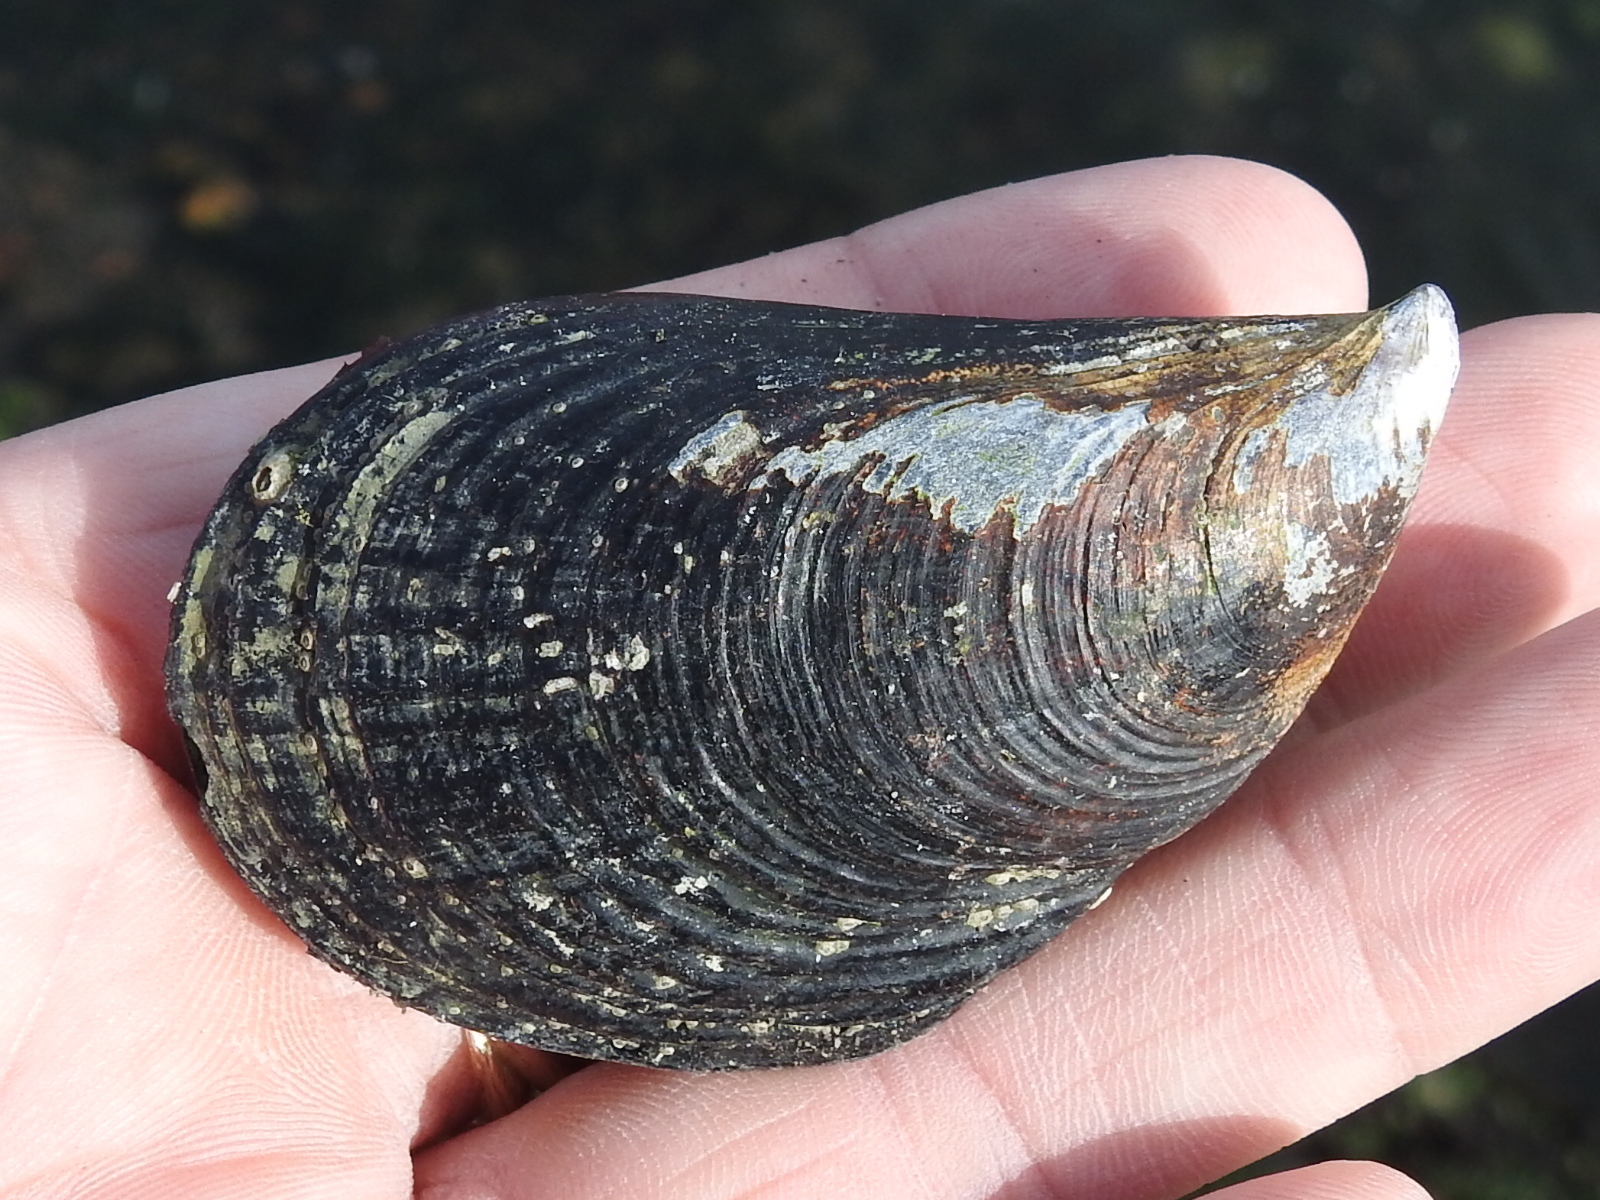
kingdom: Animalia
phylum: Mollusca
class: Bivalvia
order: Mytilida
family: Mytilidae
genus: Mytilus
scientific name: Mytilus californianus
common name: California mussel
